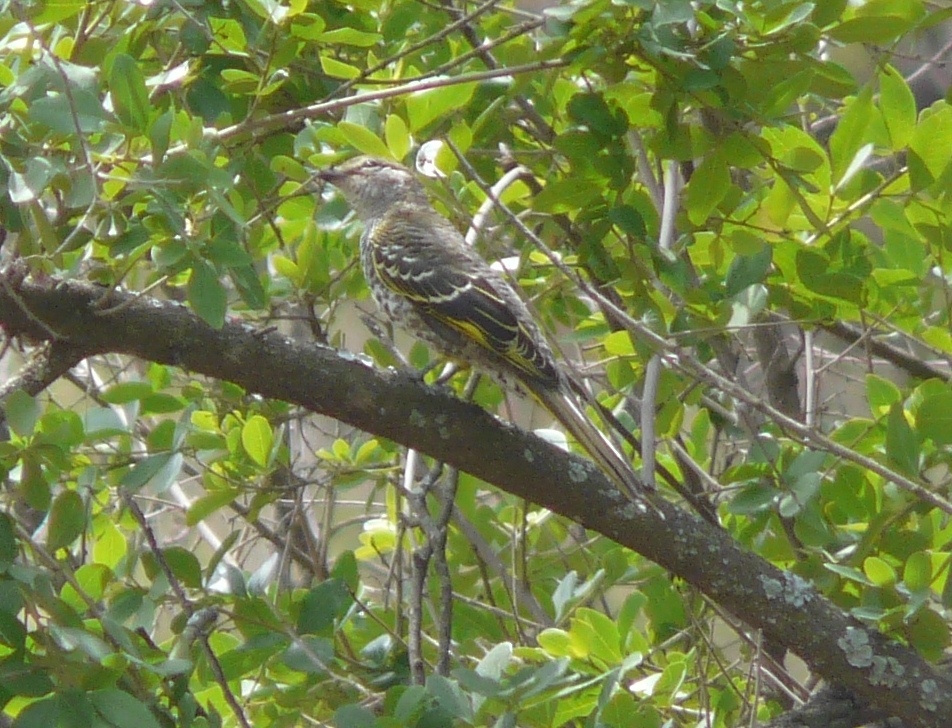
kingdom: Animalia
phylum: Chordata
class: Aves
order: Passeriformes
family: Campephagidae
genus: Campephaga
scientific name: Campephaga flava
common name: Black cuckooshrike
